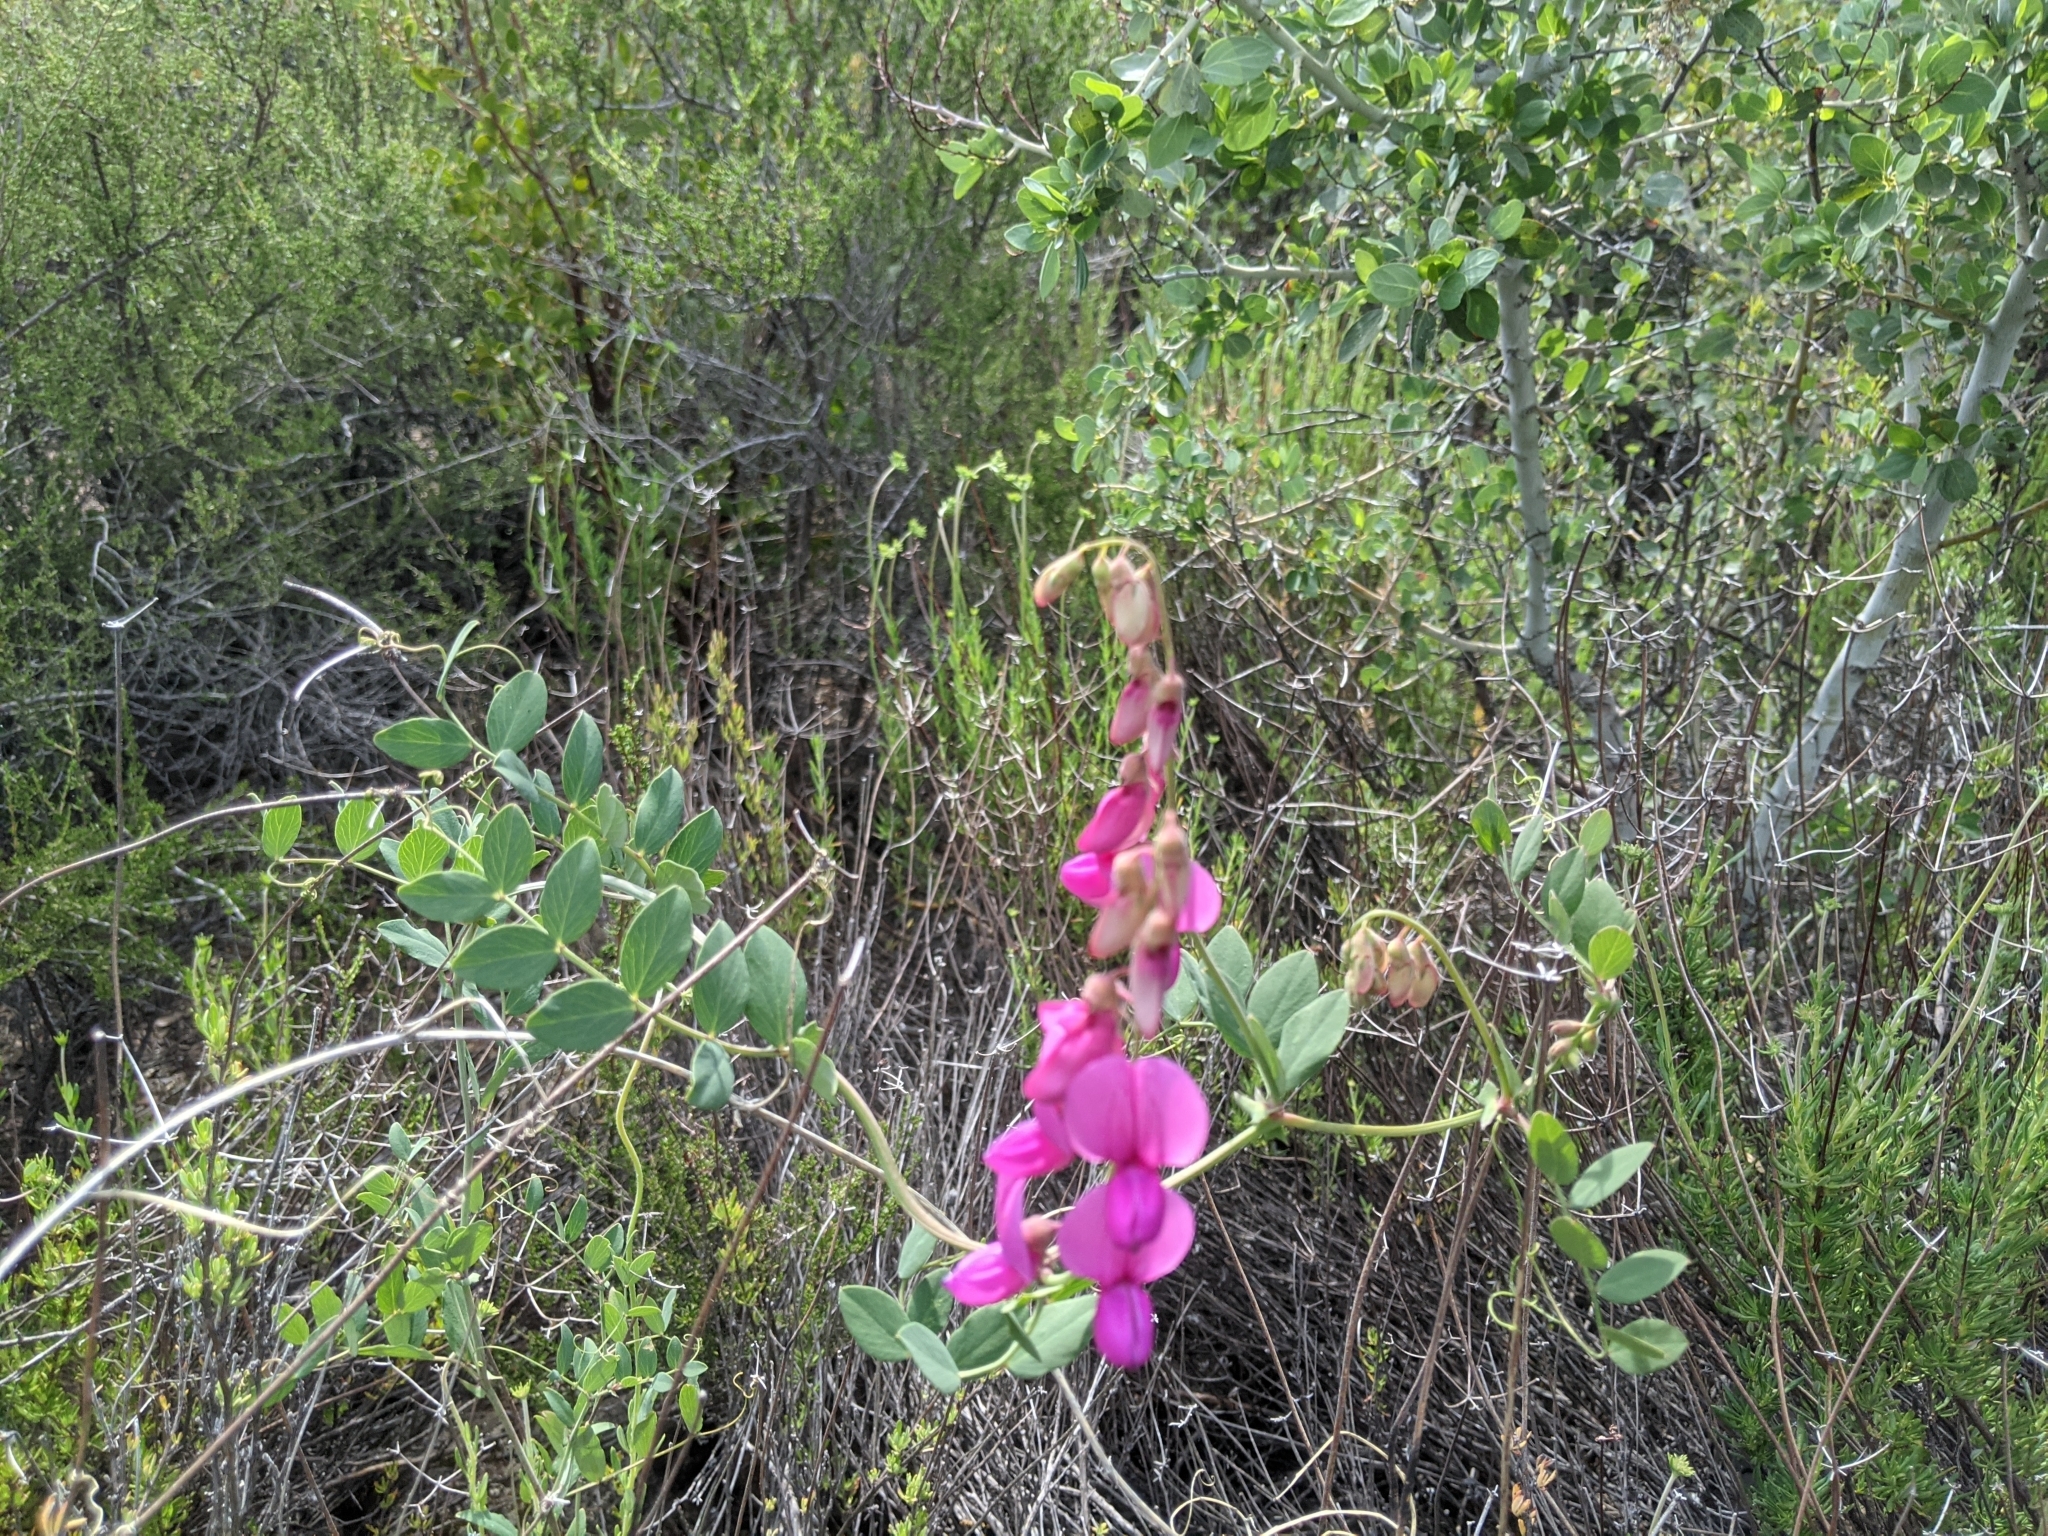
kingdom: Plantae
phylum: Tracheophyta
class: Magnoliopsida
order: Fabales
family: Fabaceae
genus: Lathyrus
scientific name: Lathyrus vestitus
